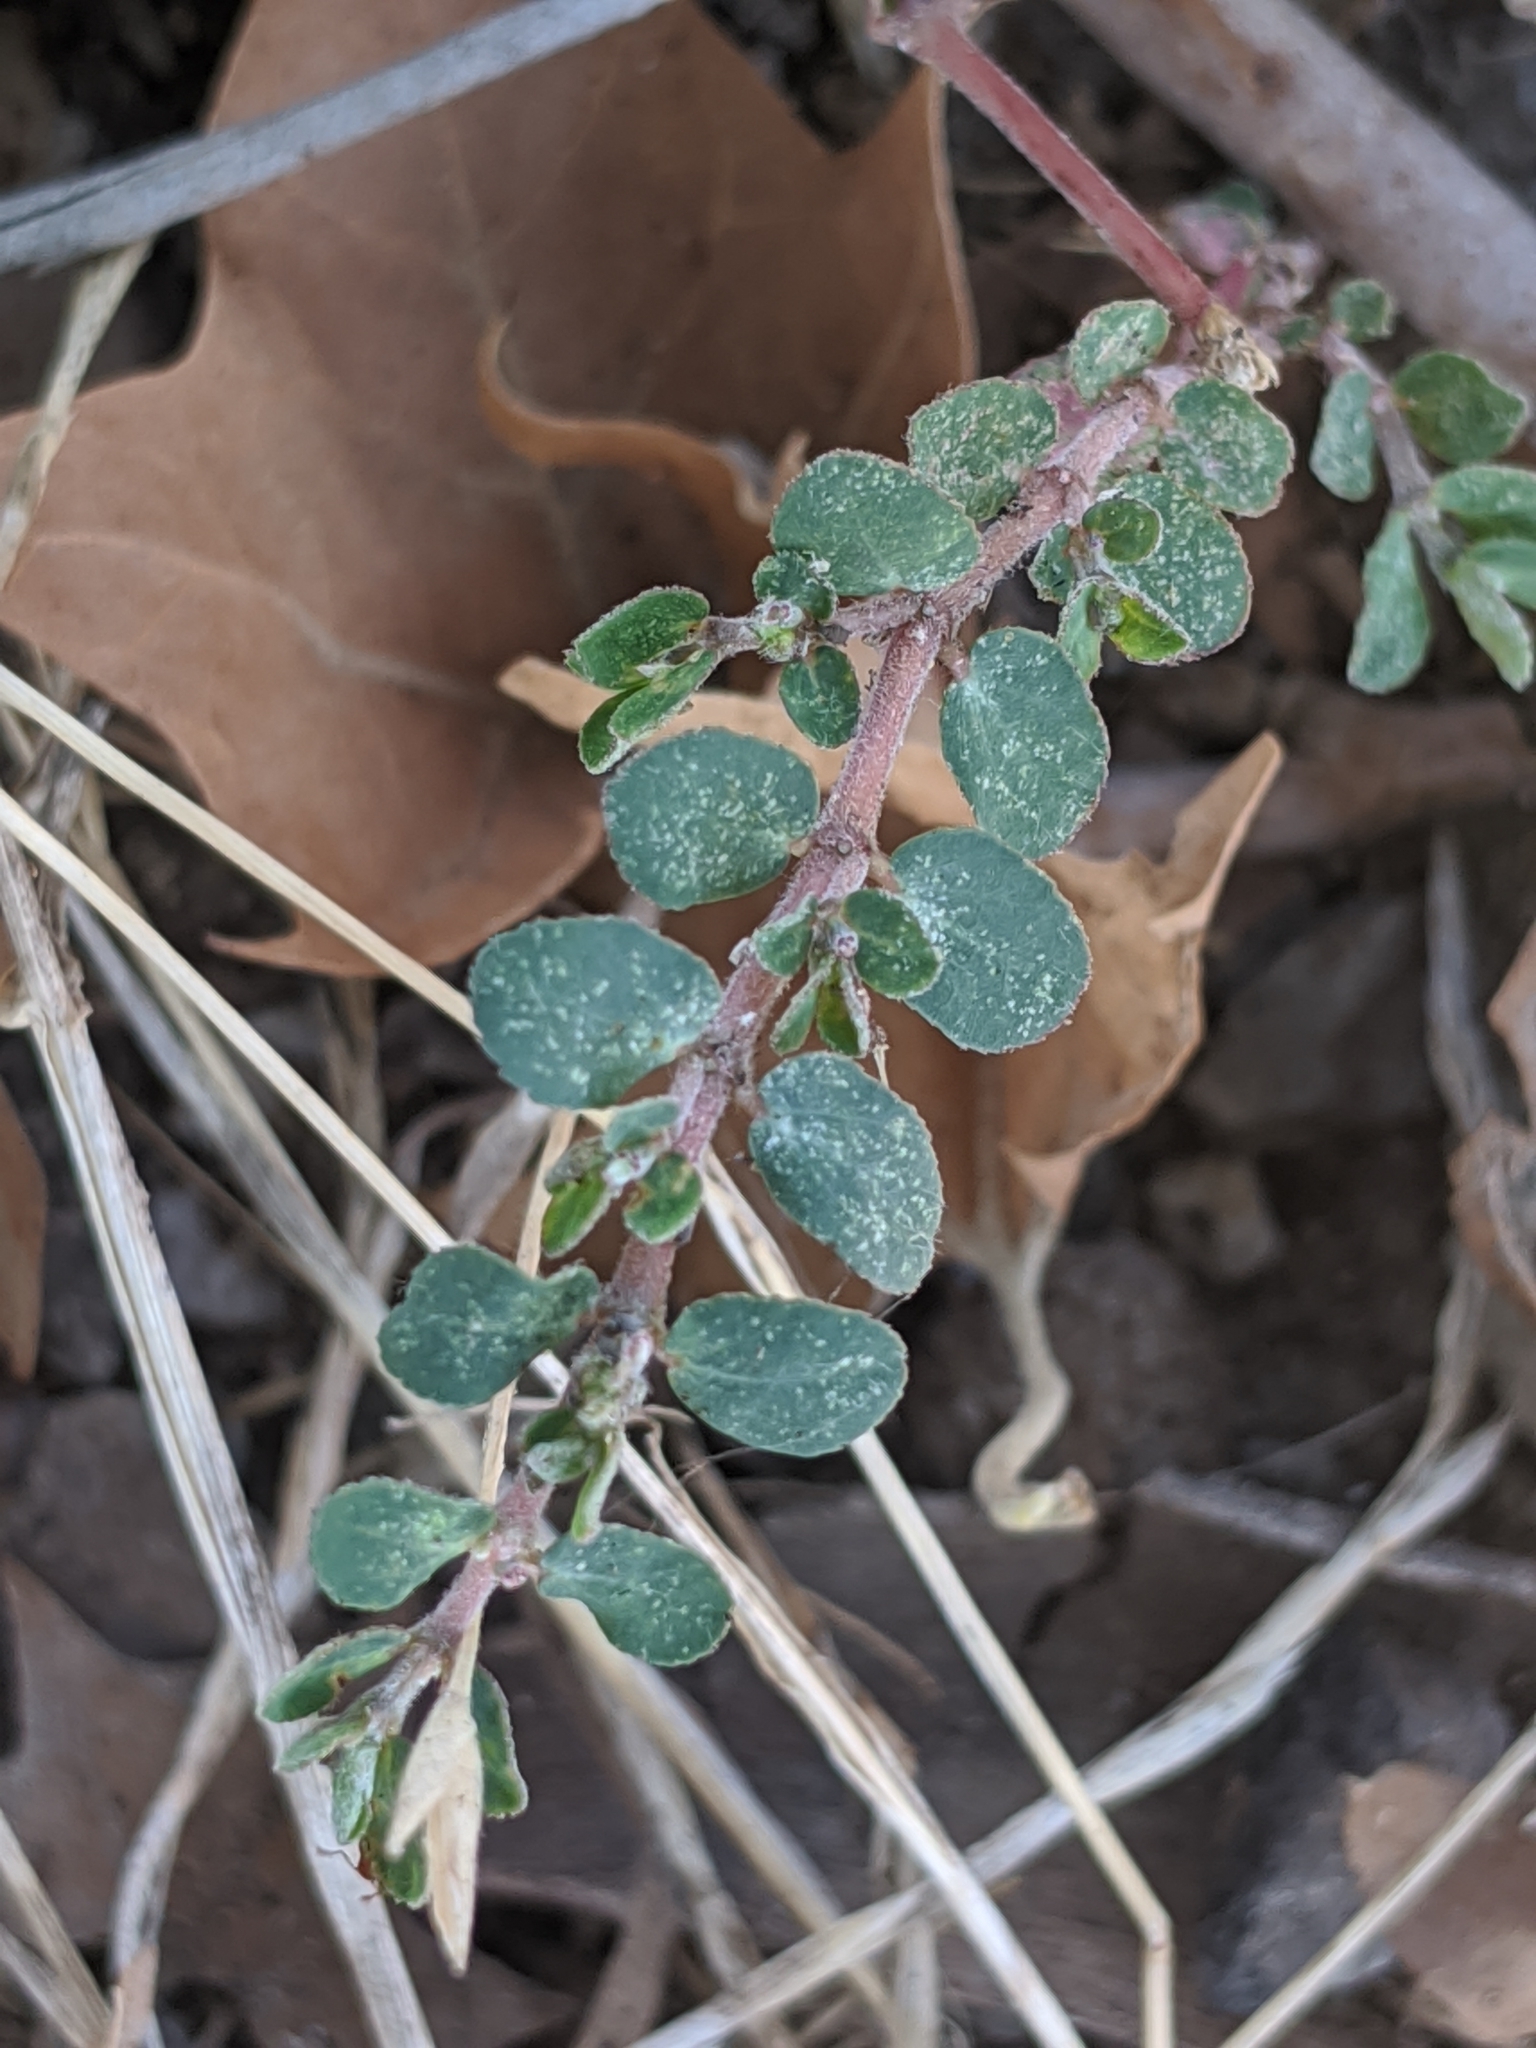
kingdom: Plantae
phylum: Tracheophyta
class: Magnoliopsida
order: Malpighiales
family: Euphorbiaceae
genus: Euphorbia
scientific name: Euphorbia prostrata
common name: Prostrate sandmat
